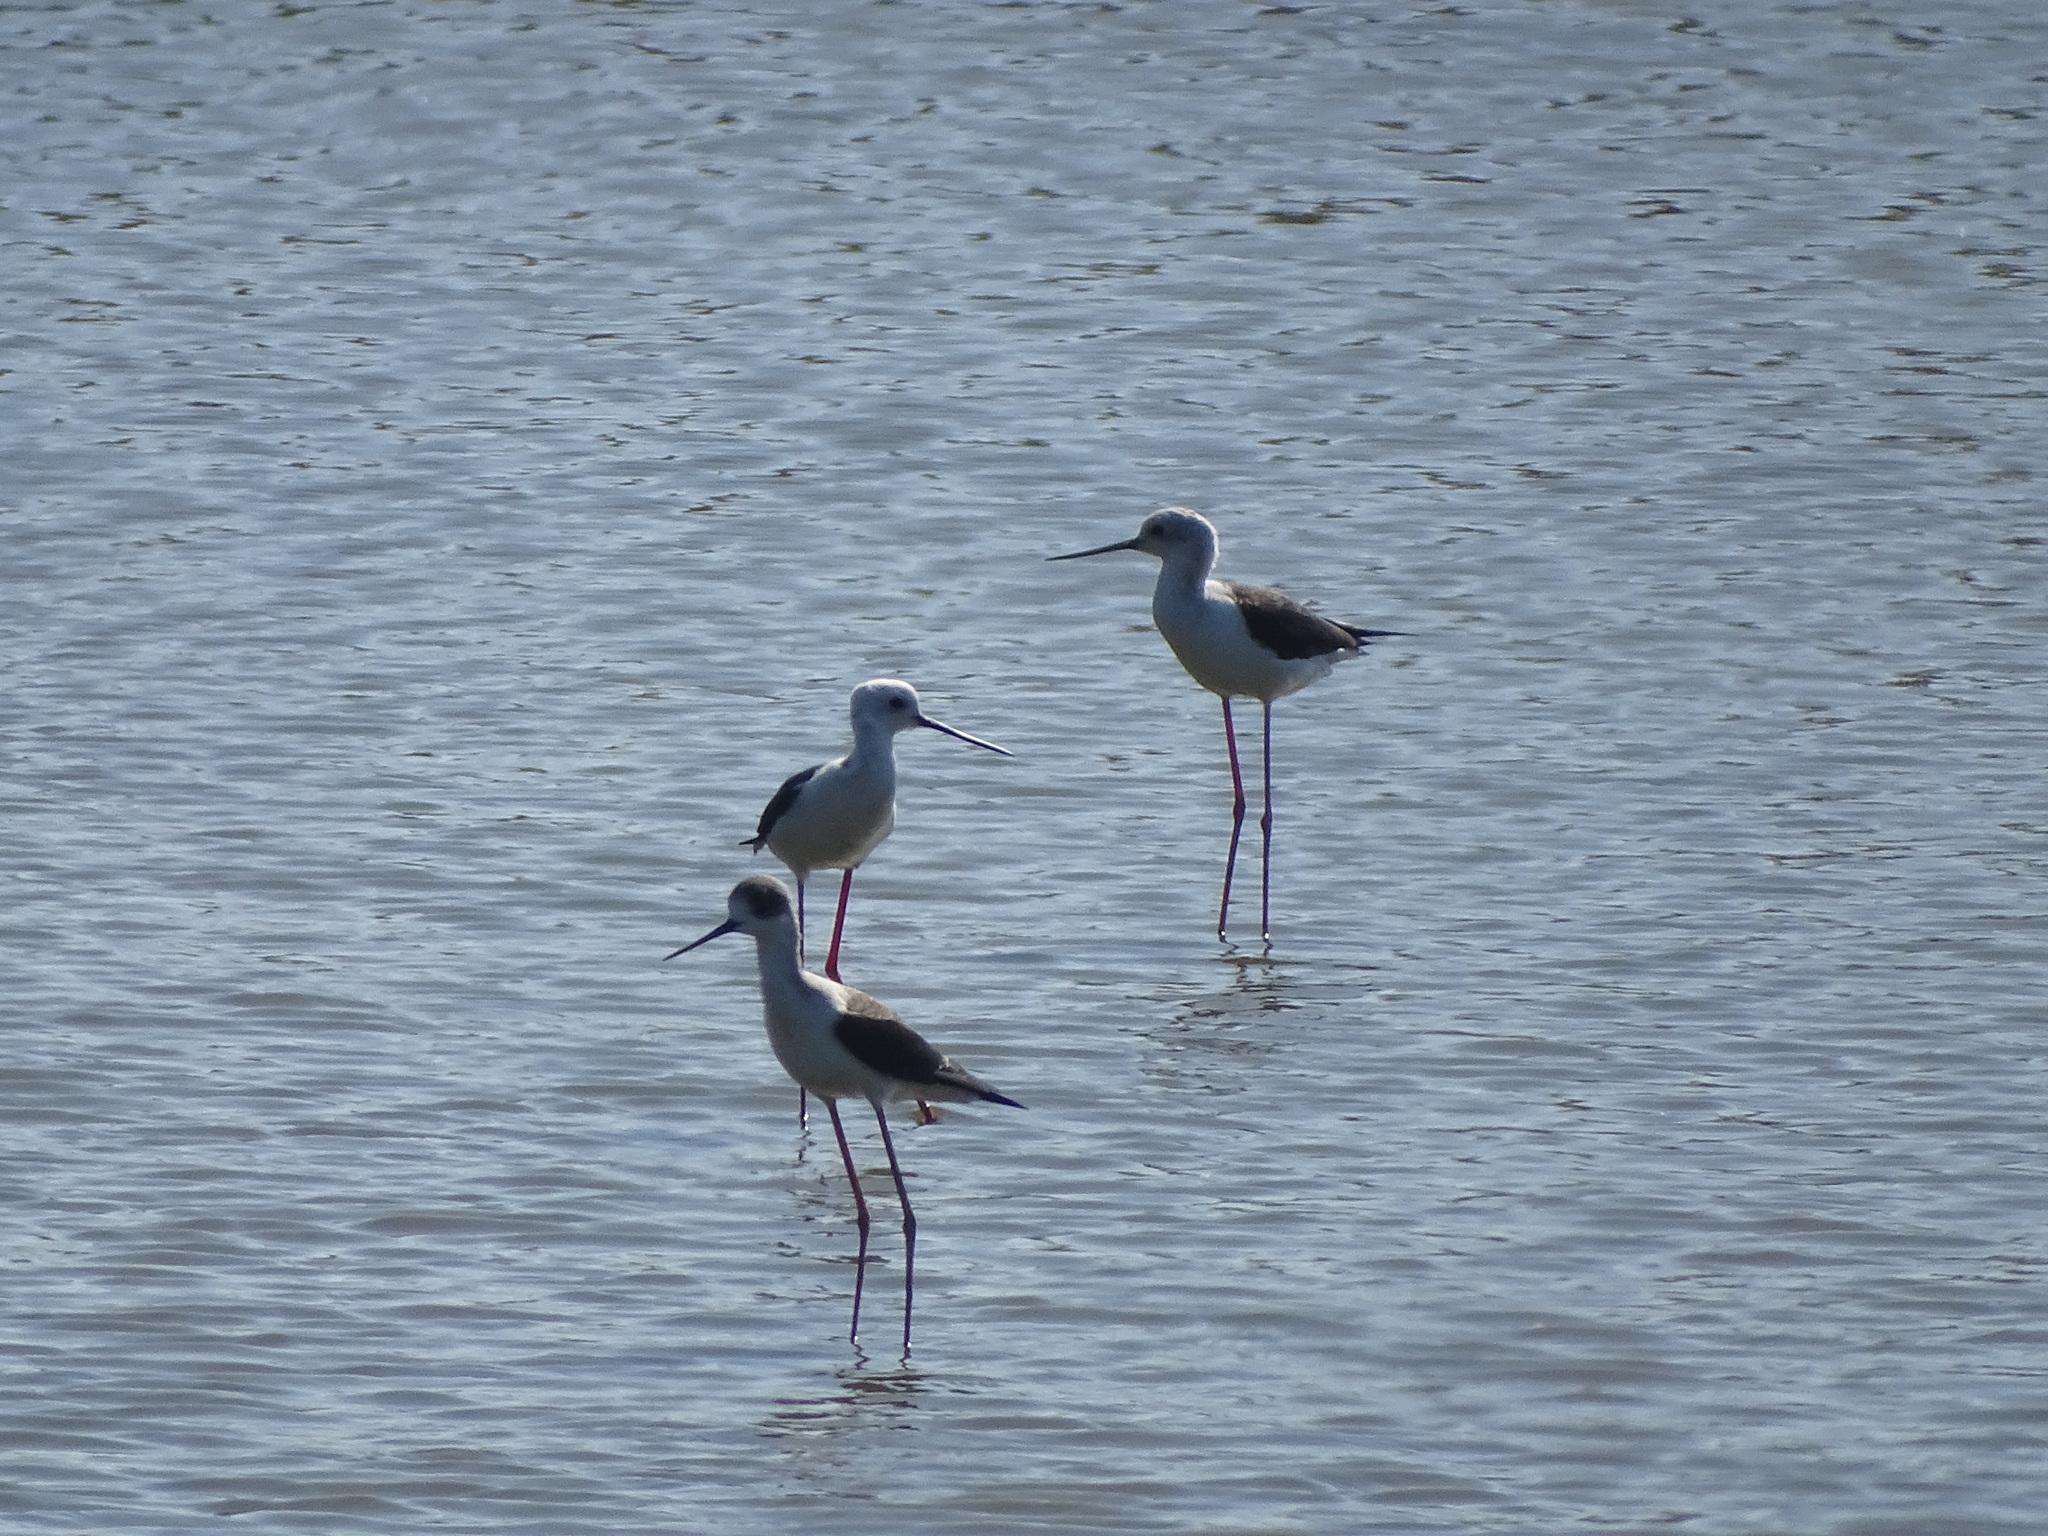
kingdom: Animalia
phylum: Chordata
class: Aves
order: Charadriiformes
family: Recurvirostridae
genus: Himantopus
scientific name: Himantopus himantopus
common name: Black-winged stilt
